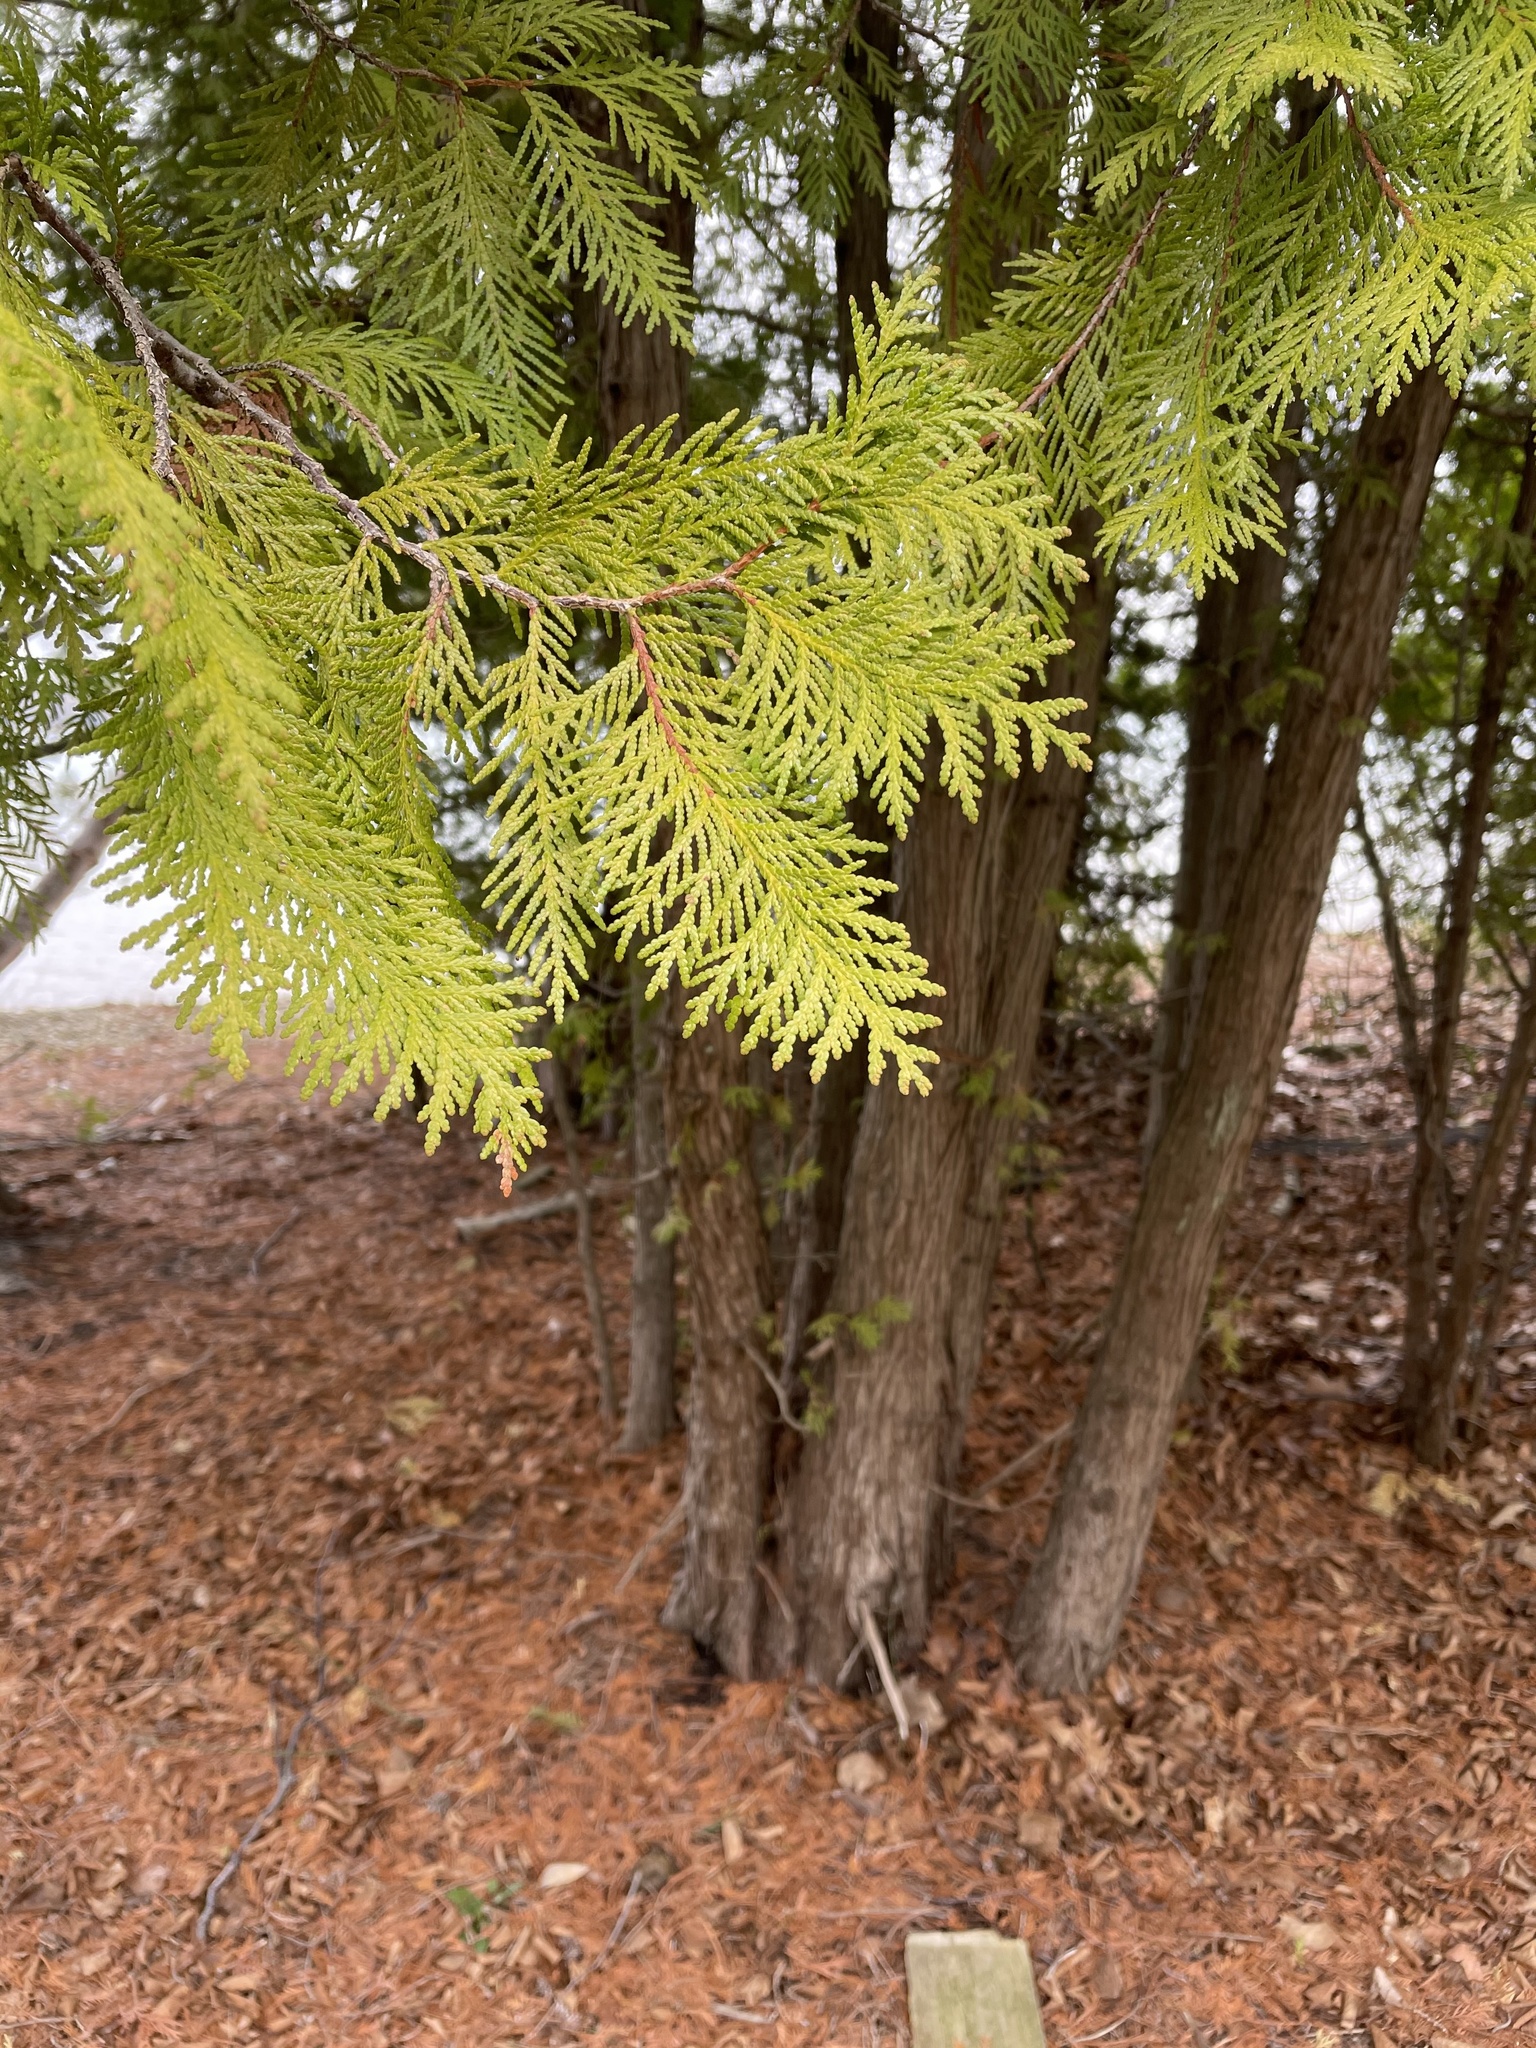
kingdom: Plantae
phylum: Tracheophyta
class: Pinopsida
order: Pinales
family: Cupressaceae
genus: Thuja
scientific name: Thuja occidentalis
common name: Northern white-cedar
